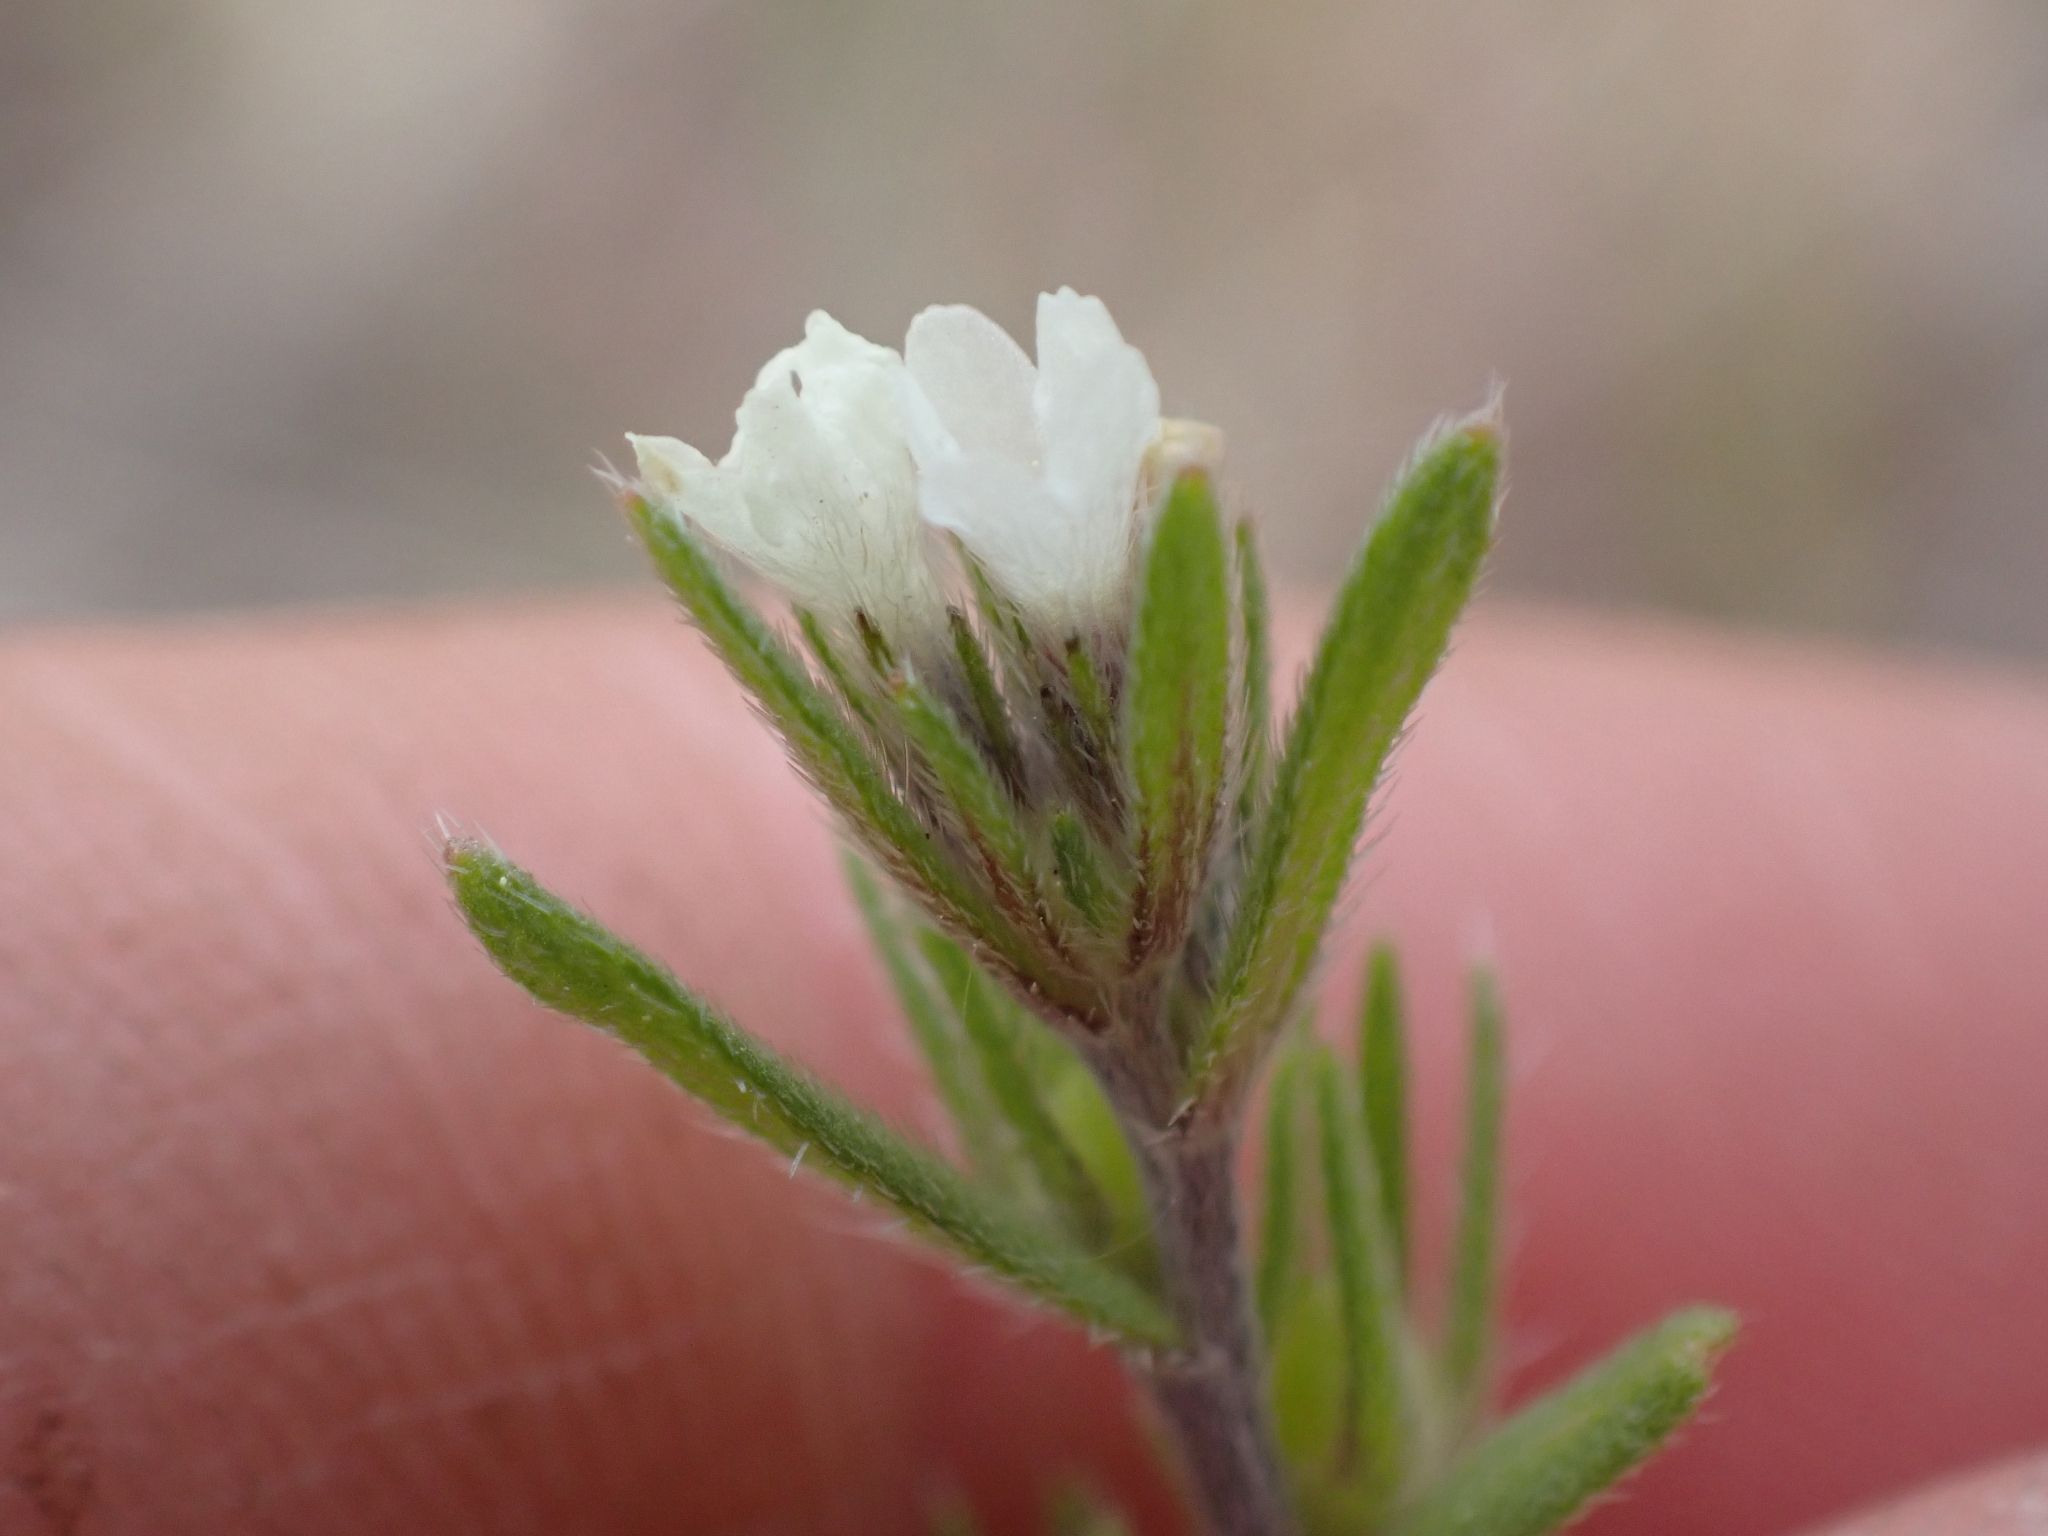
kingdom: Plantae
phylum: Tracheophyta
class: Magnoliopsida
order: Boraginales
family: Boraginaceae
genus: Buglossoides
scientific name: Buglossoides arvensis
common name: Corn gromwell
